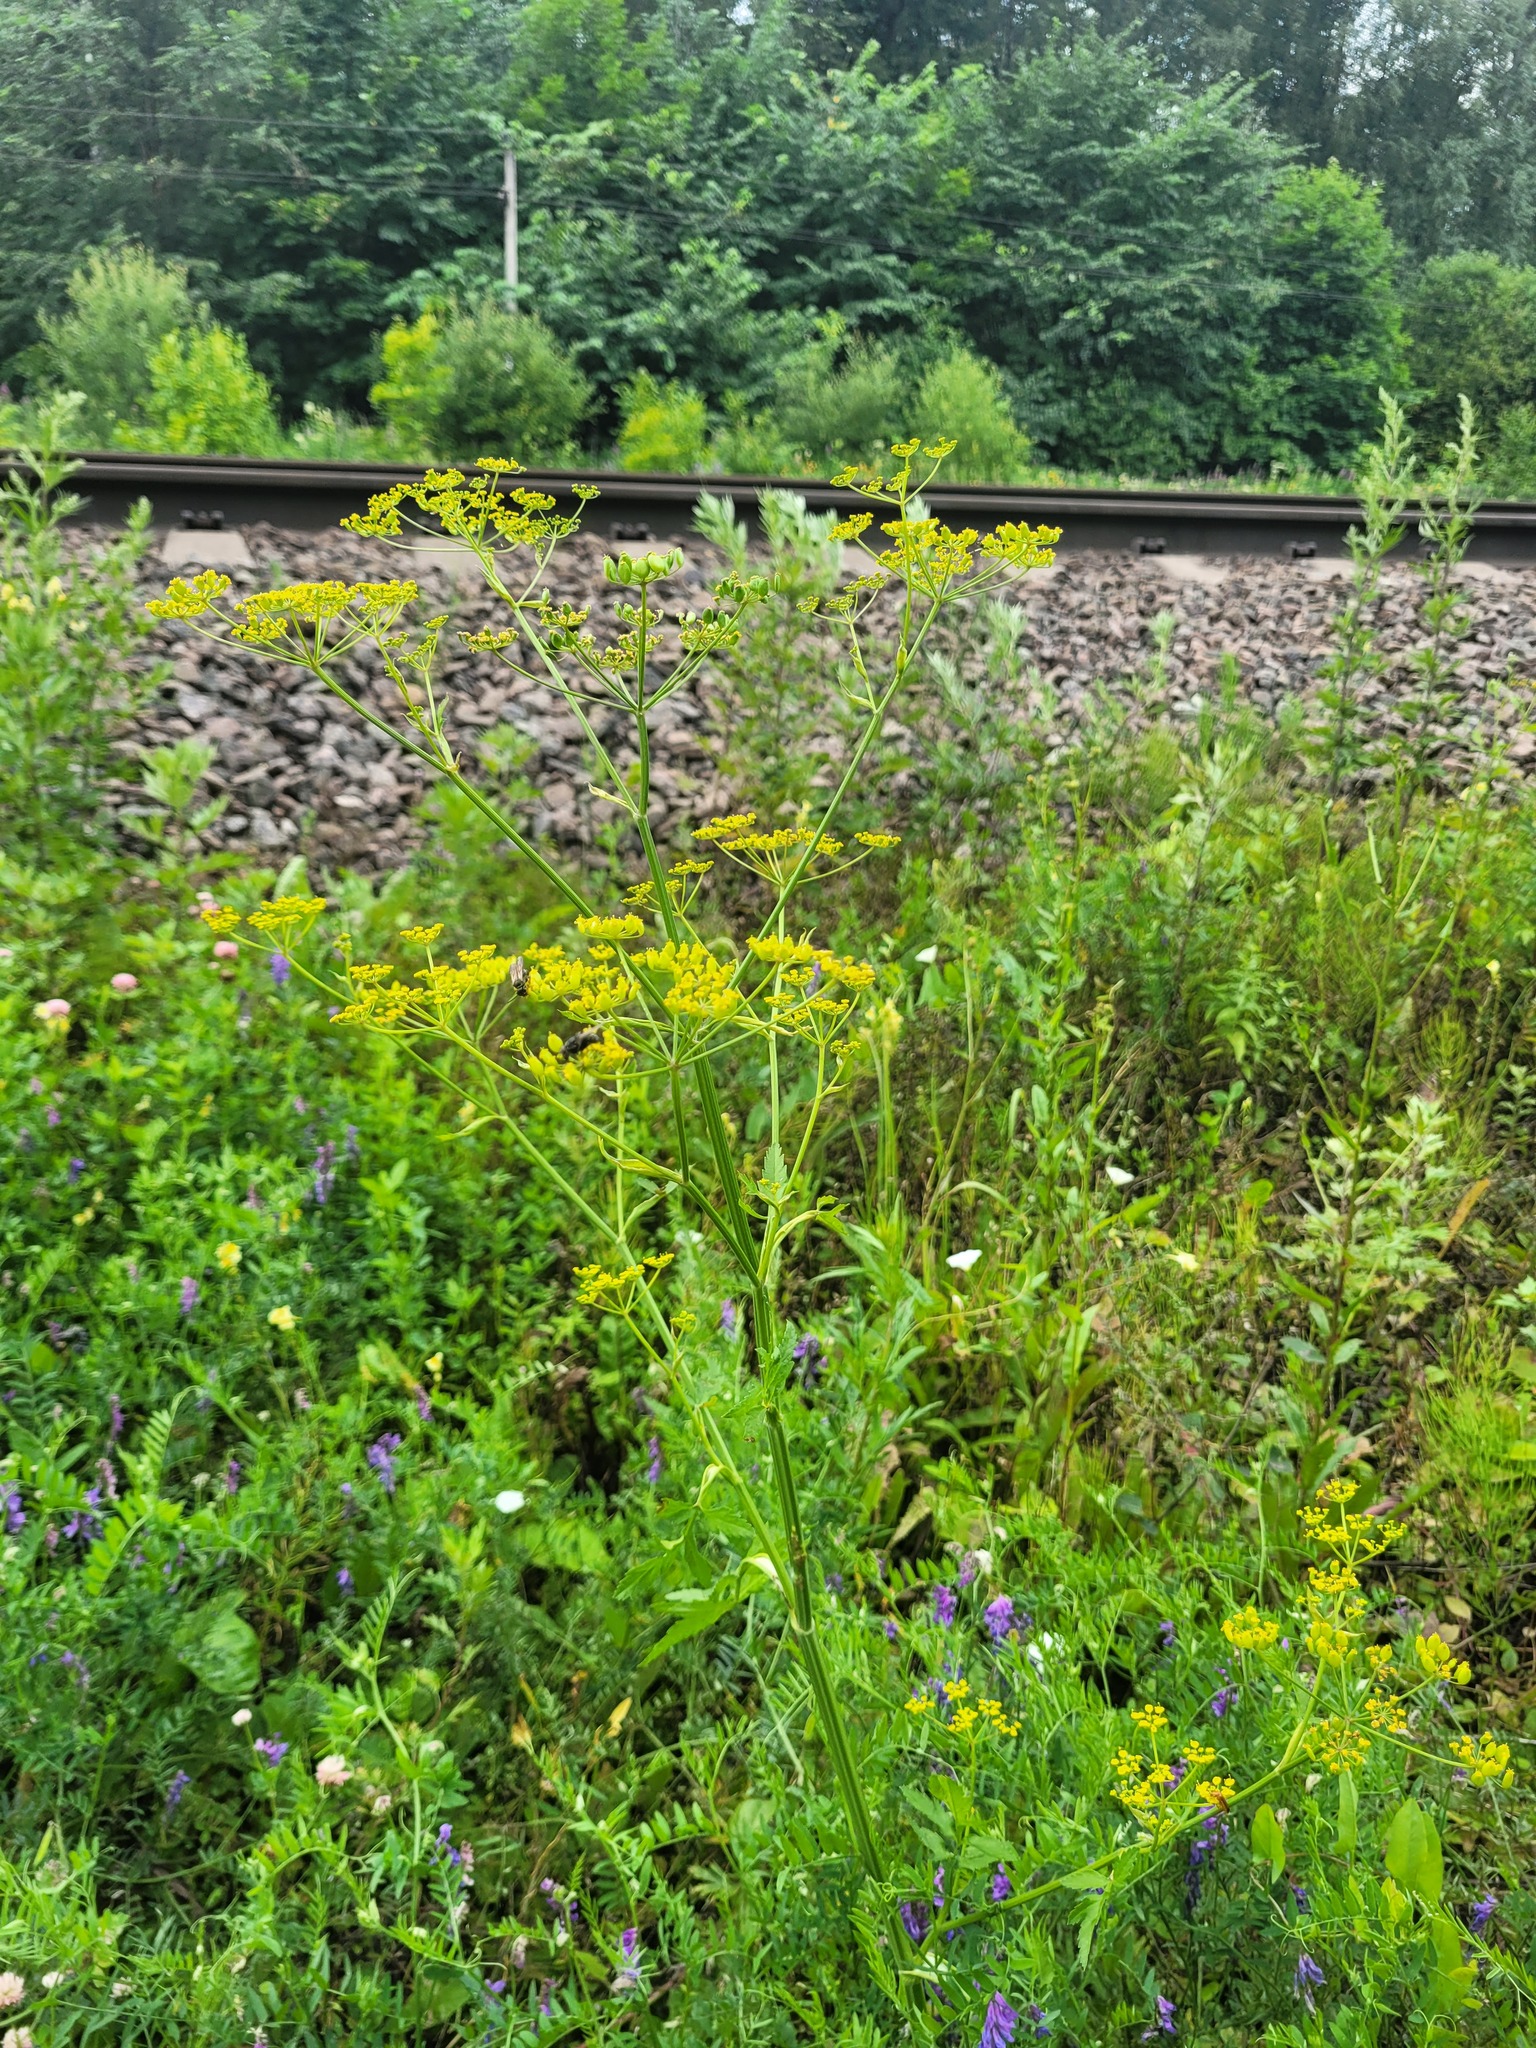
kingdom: Plantae
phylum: Tracheophyta
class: Magnoliopsida
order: Apiales
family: Apiaceae
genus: Pastinaca
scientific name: Pastinaca sativa
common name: Wild parsnip
